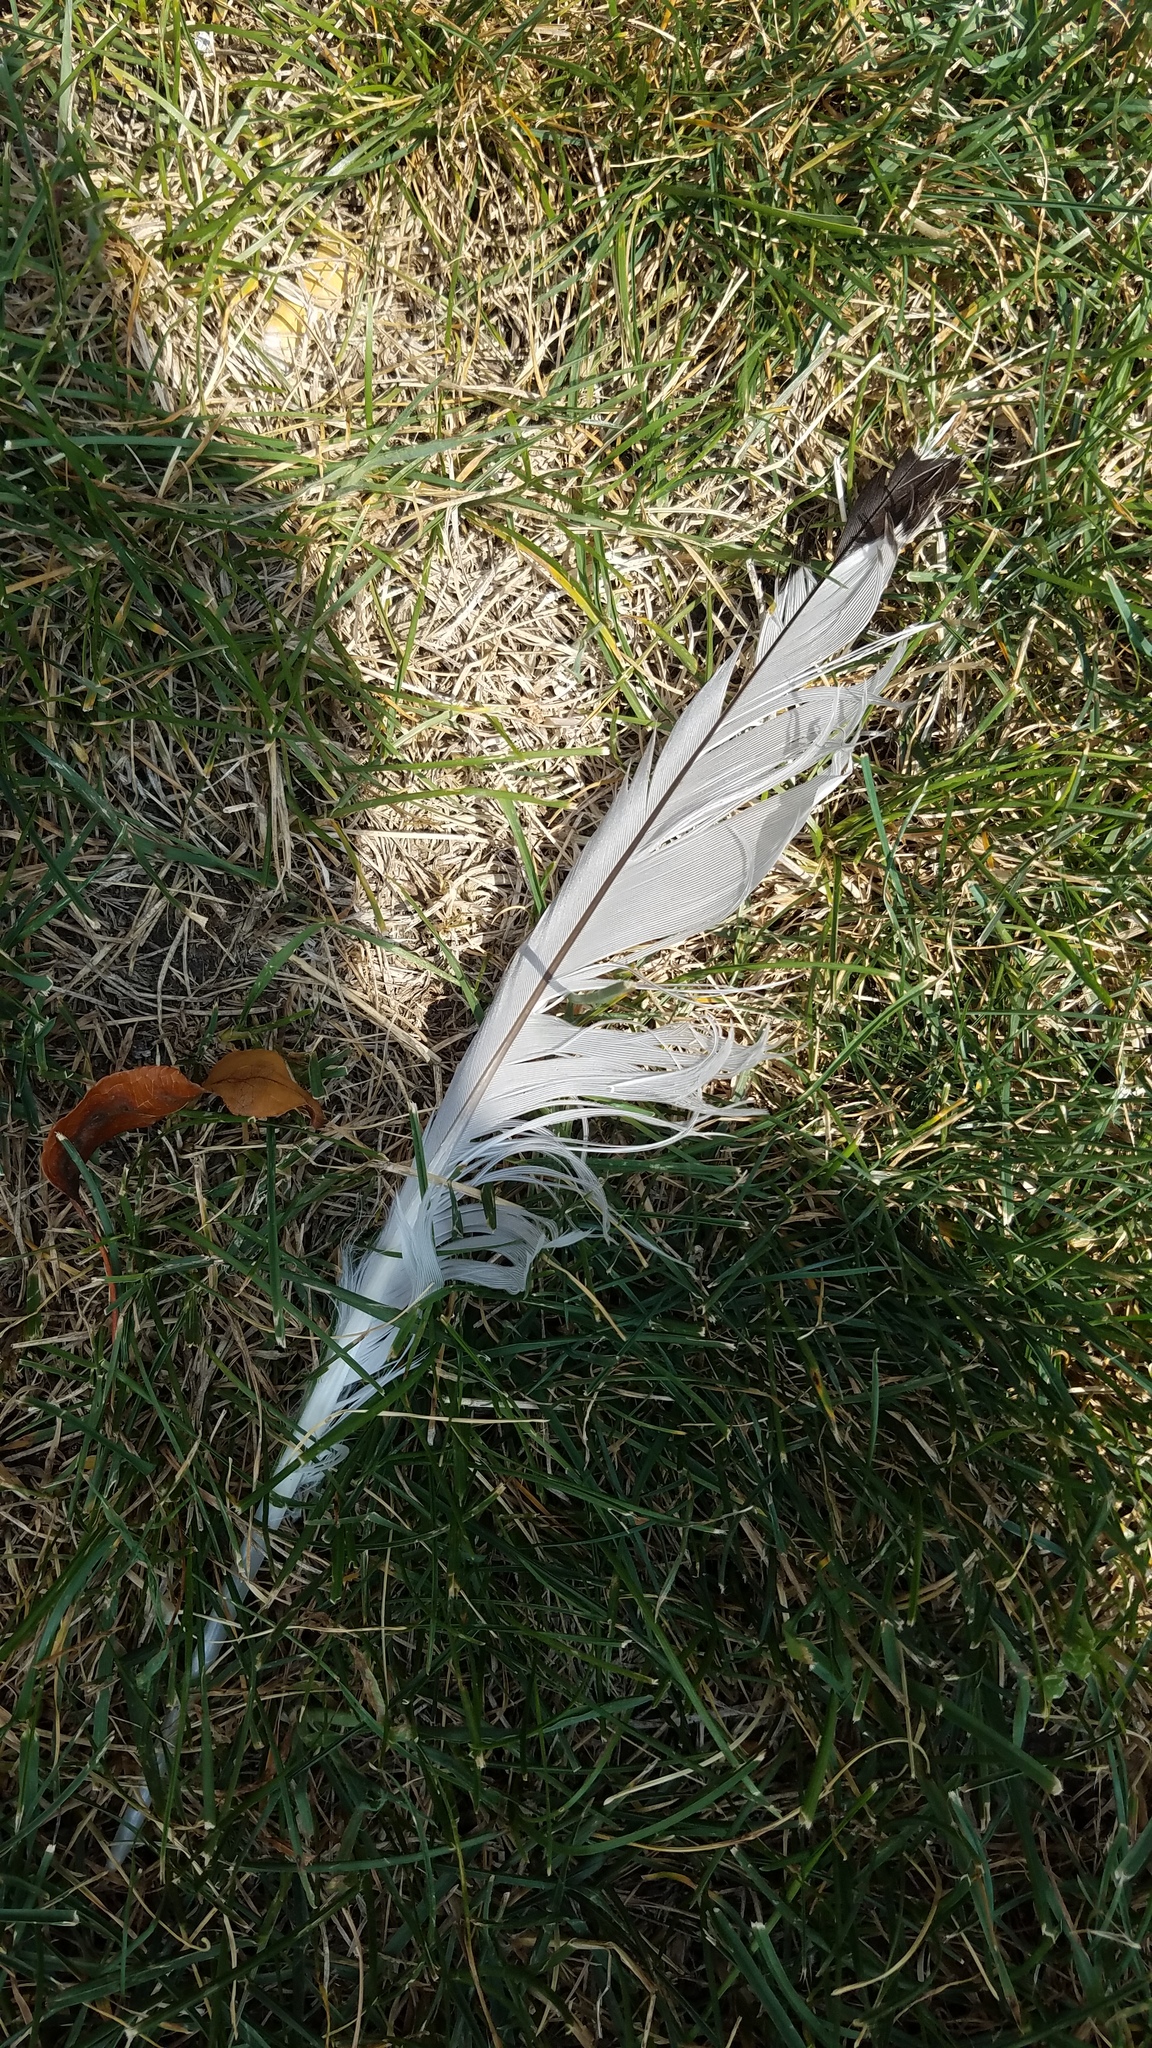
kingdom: Animalia
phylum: Chordata
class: Aves
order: Charadriiformes
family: Laridae
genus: Larus
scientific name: Larus
